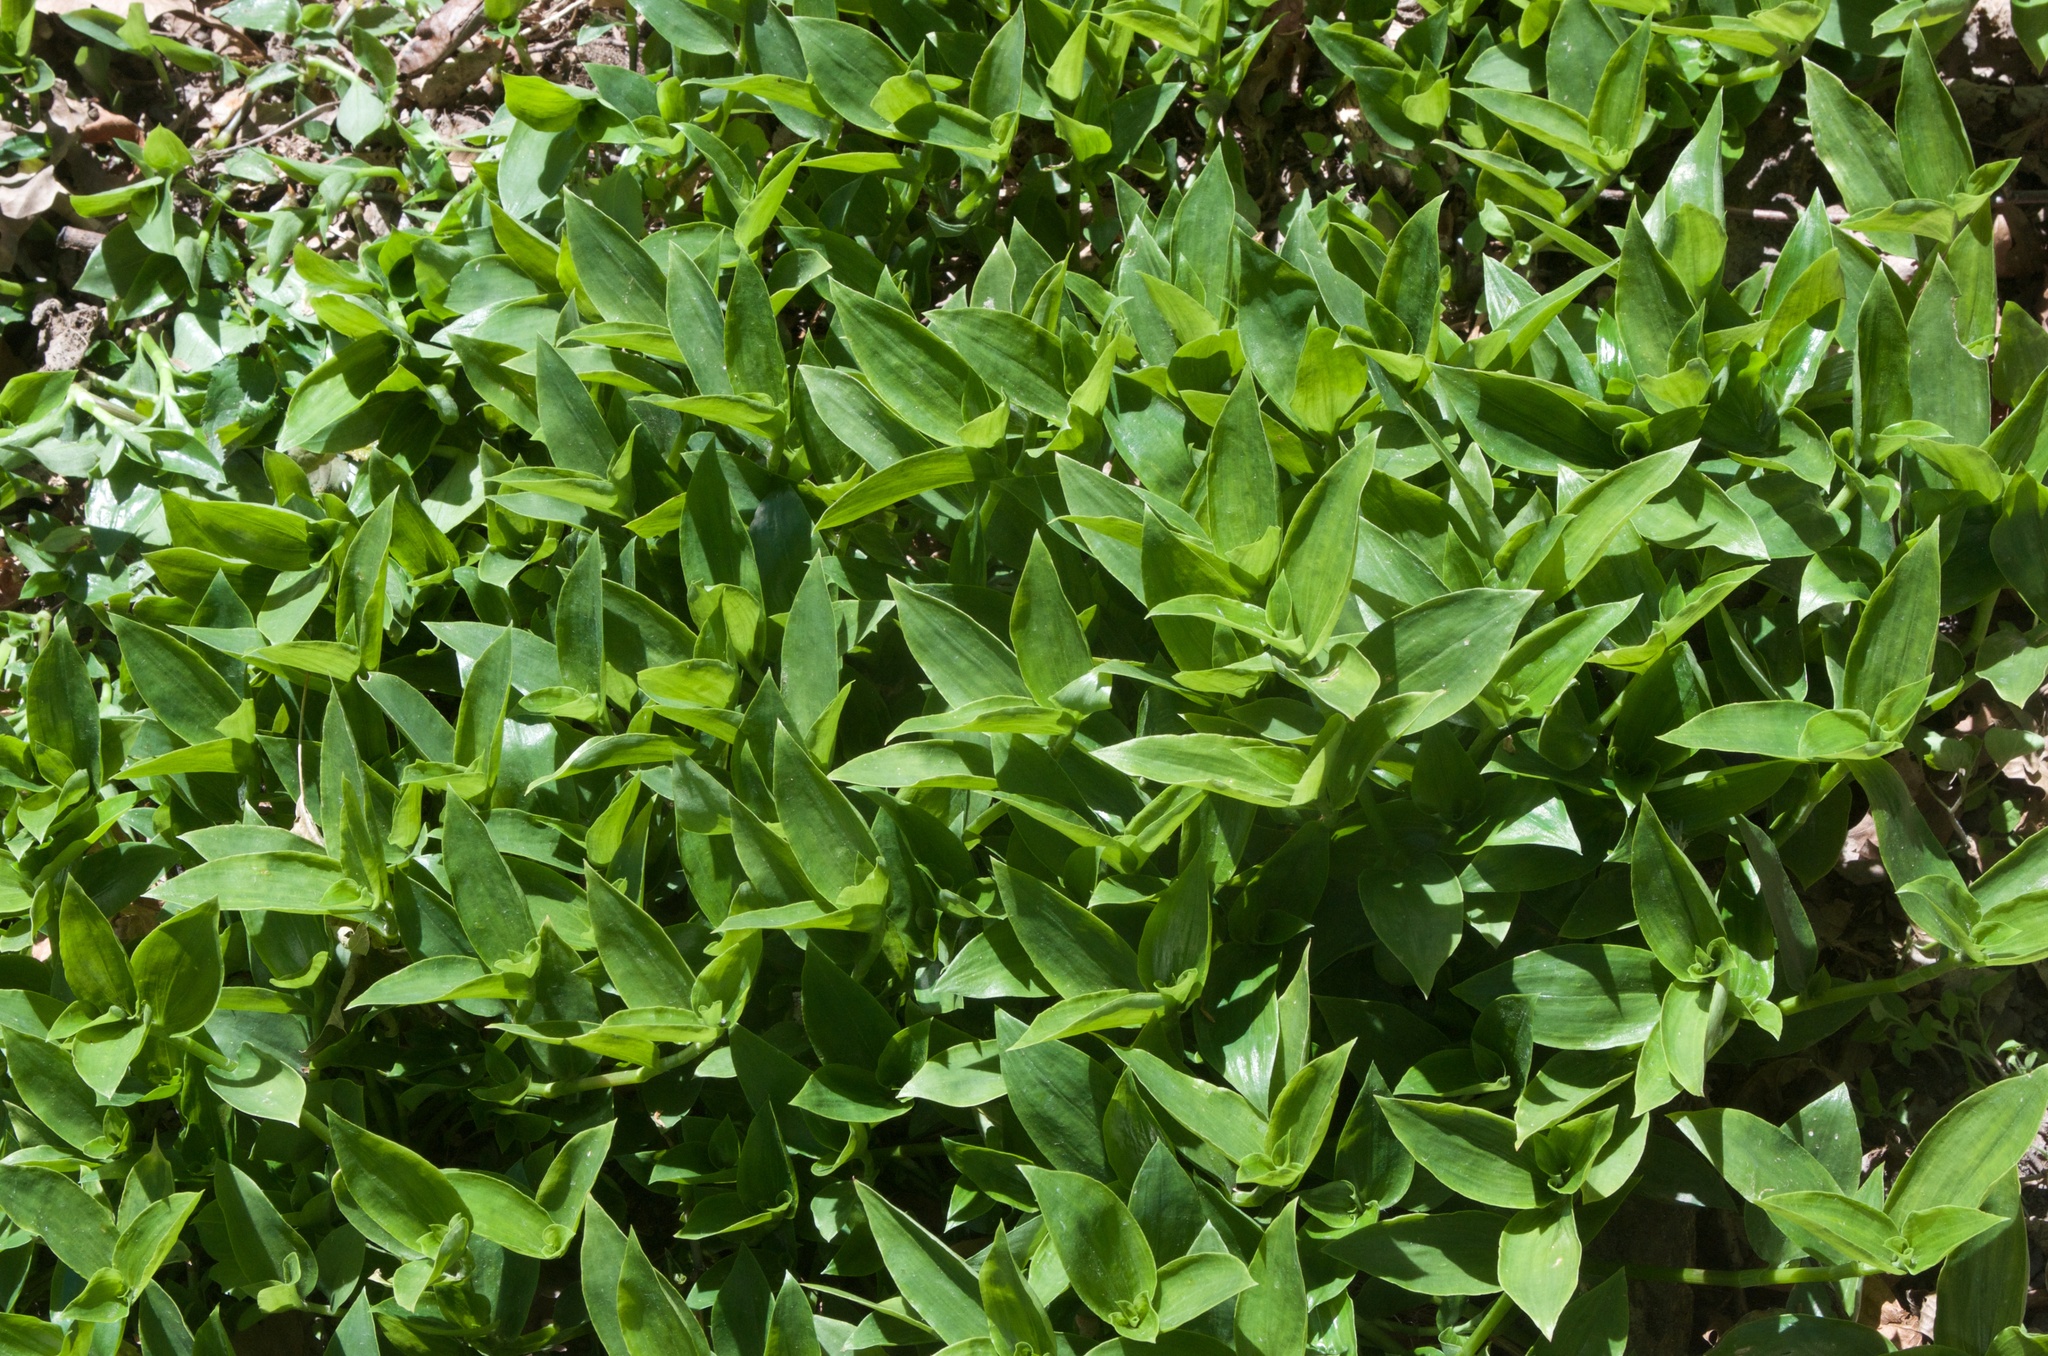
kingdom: Plantae
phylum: Tracheophyta
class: Liliopsida
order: Commelinales
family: Commelinaceae
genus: Tradescantia
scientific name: Tradescantia fluminensis
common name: Wandering-jew
